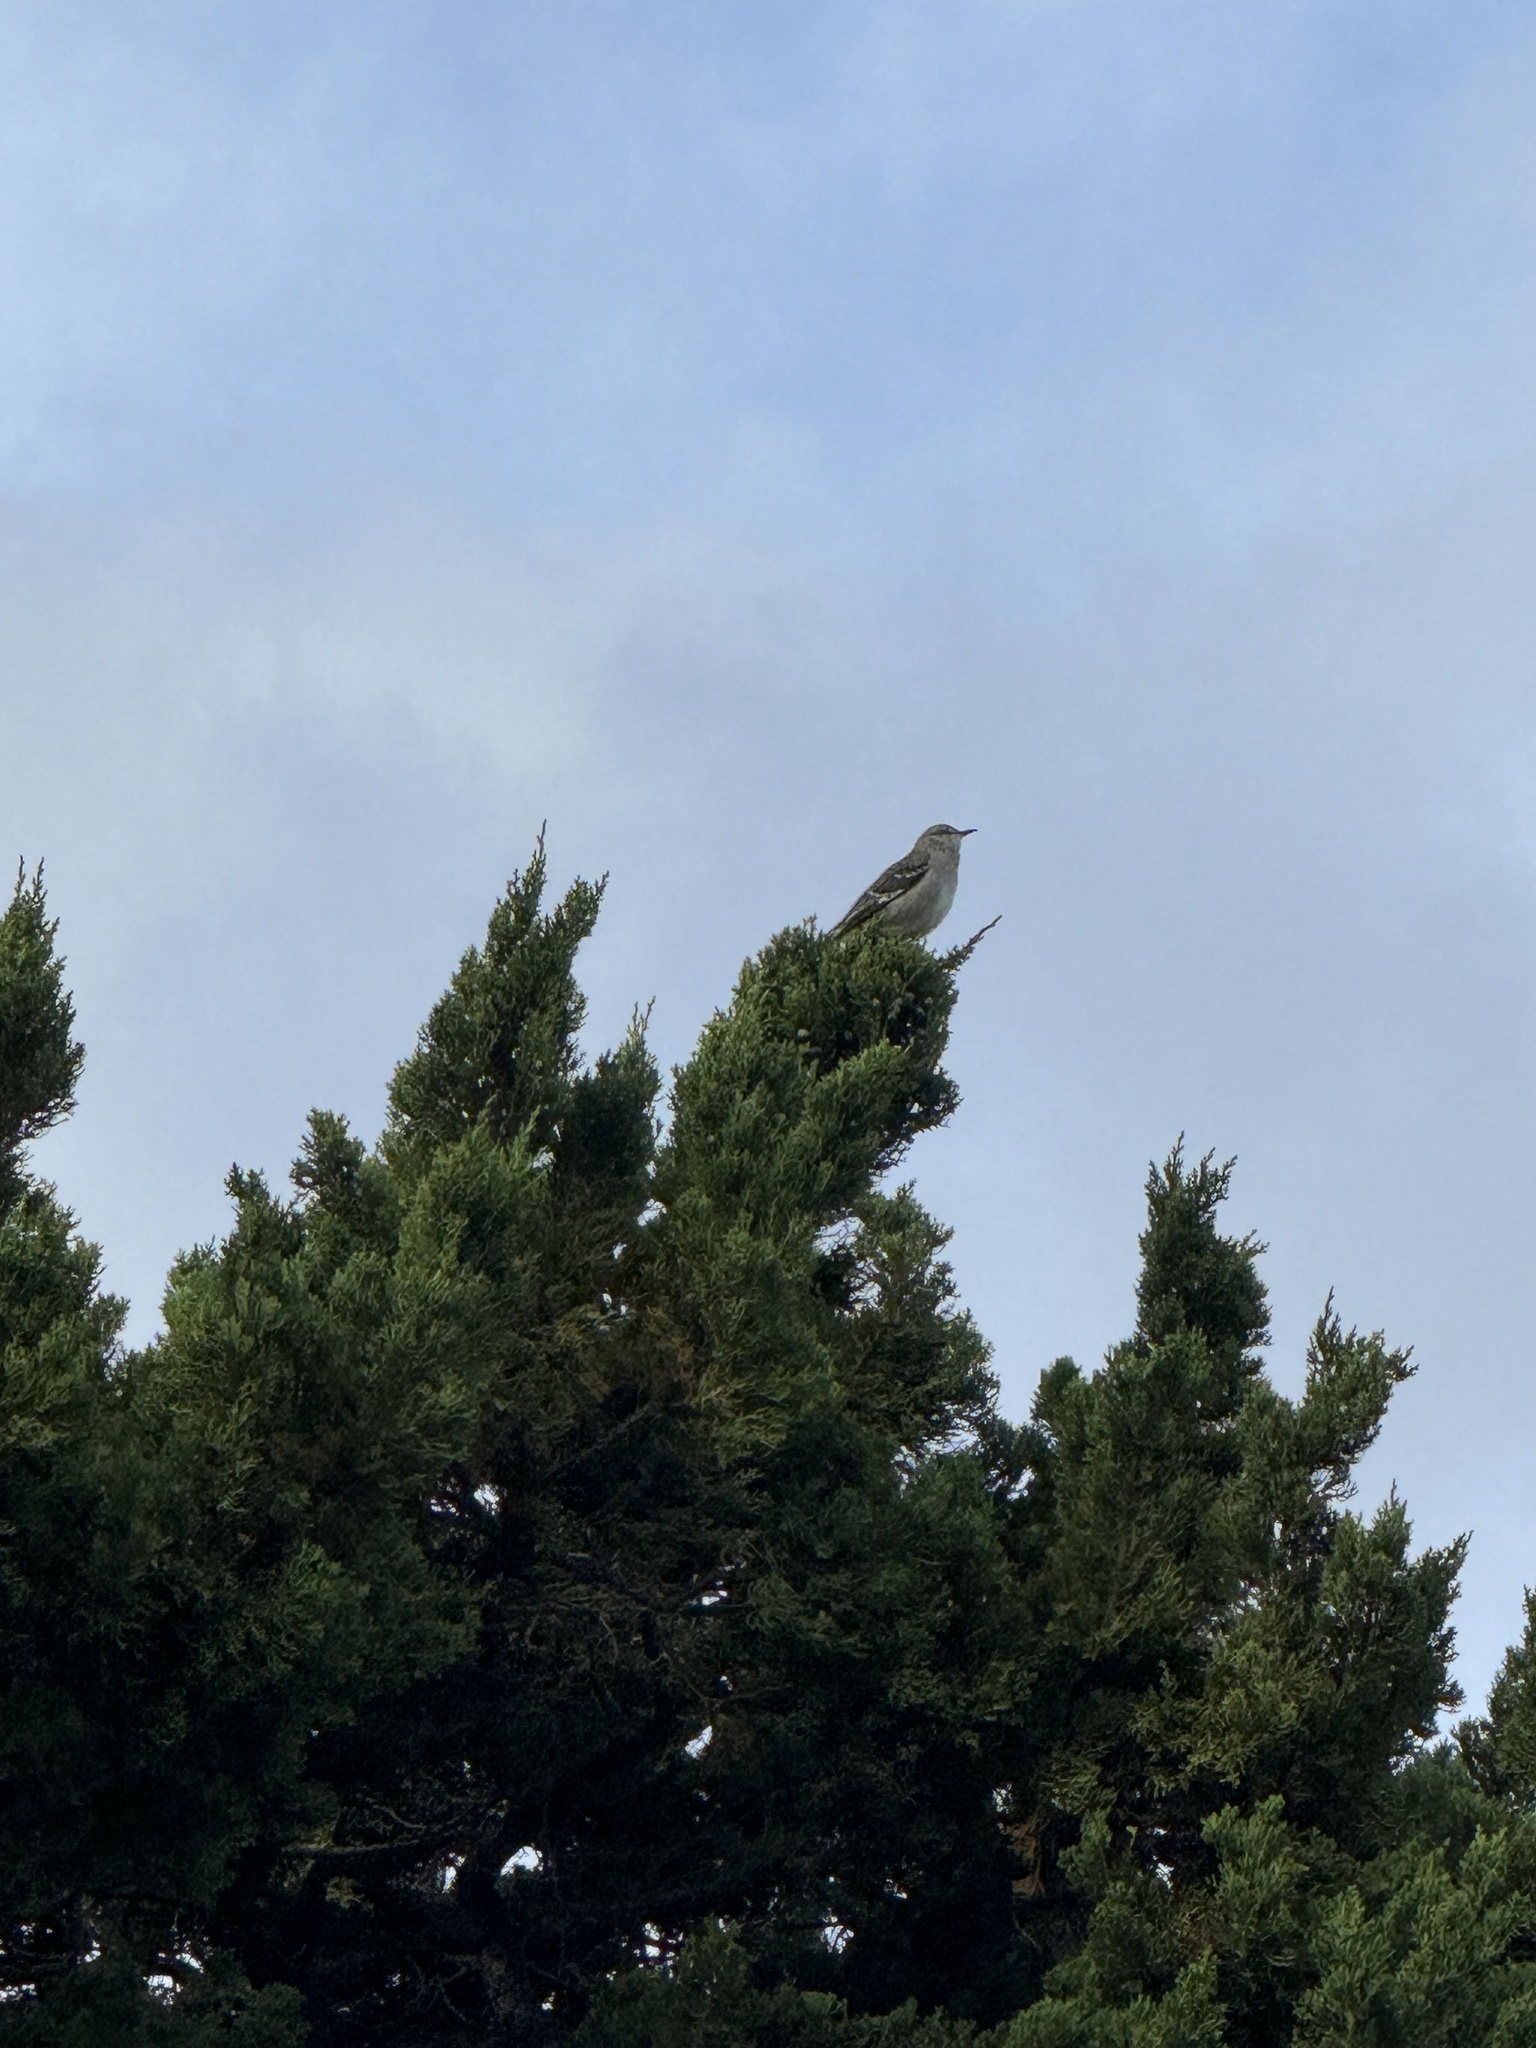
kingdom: Animalia
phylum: Chordata
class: Aves
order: Passeriformes
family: Mimidae
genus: Mimus
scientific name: Mimus polyglottos
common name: Northern mockingbird
